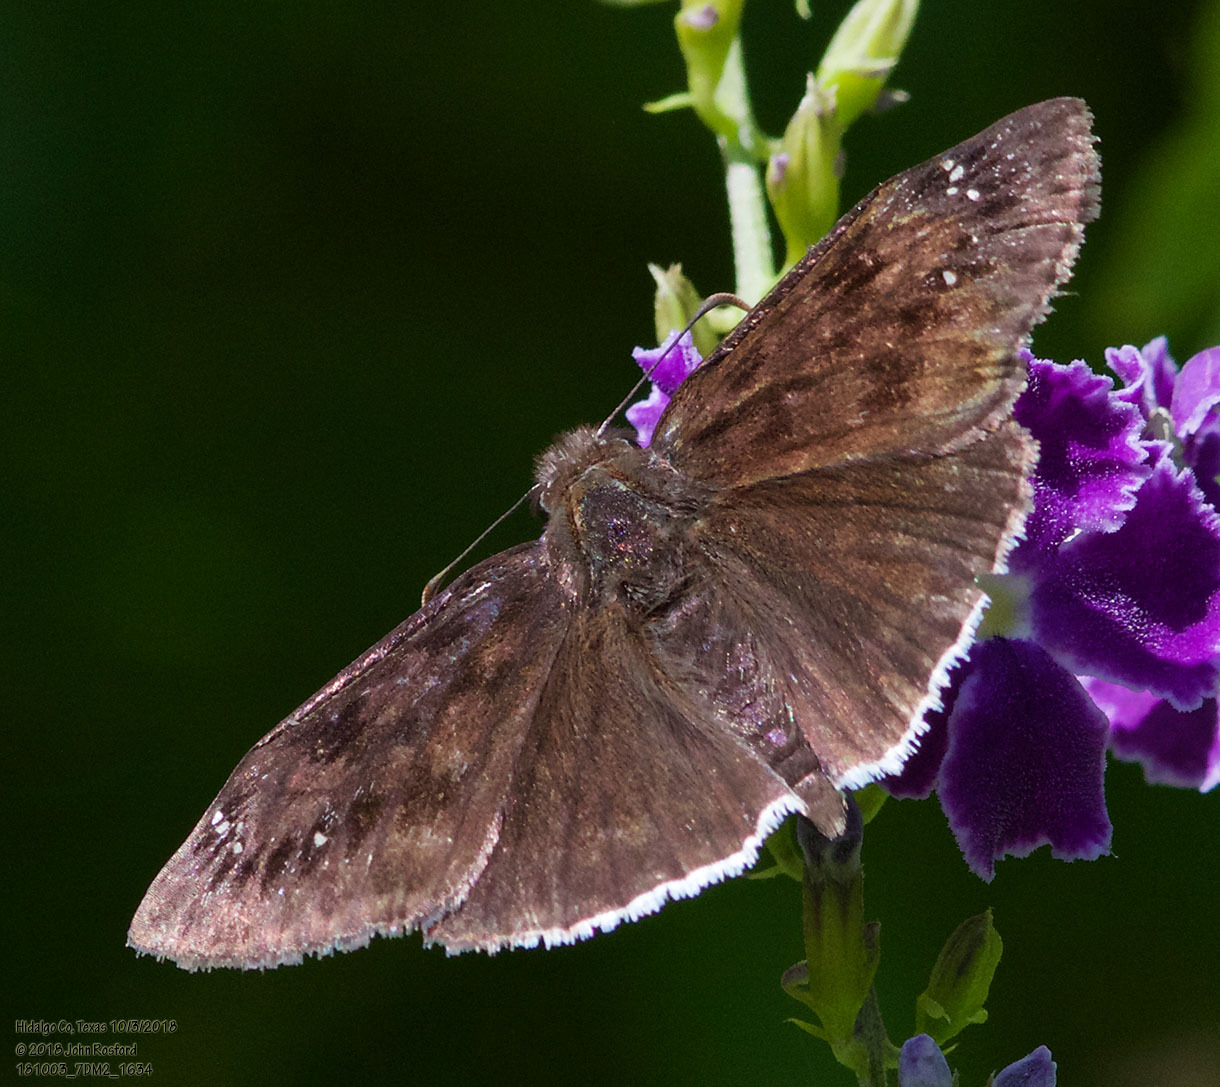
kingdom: Animalia
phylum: Arthropoda
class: Insecta
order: Lepidoptera
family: Hesperiidae
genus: Erynnis
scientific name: Erynnis tristis
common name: Mournful duskywing
